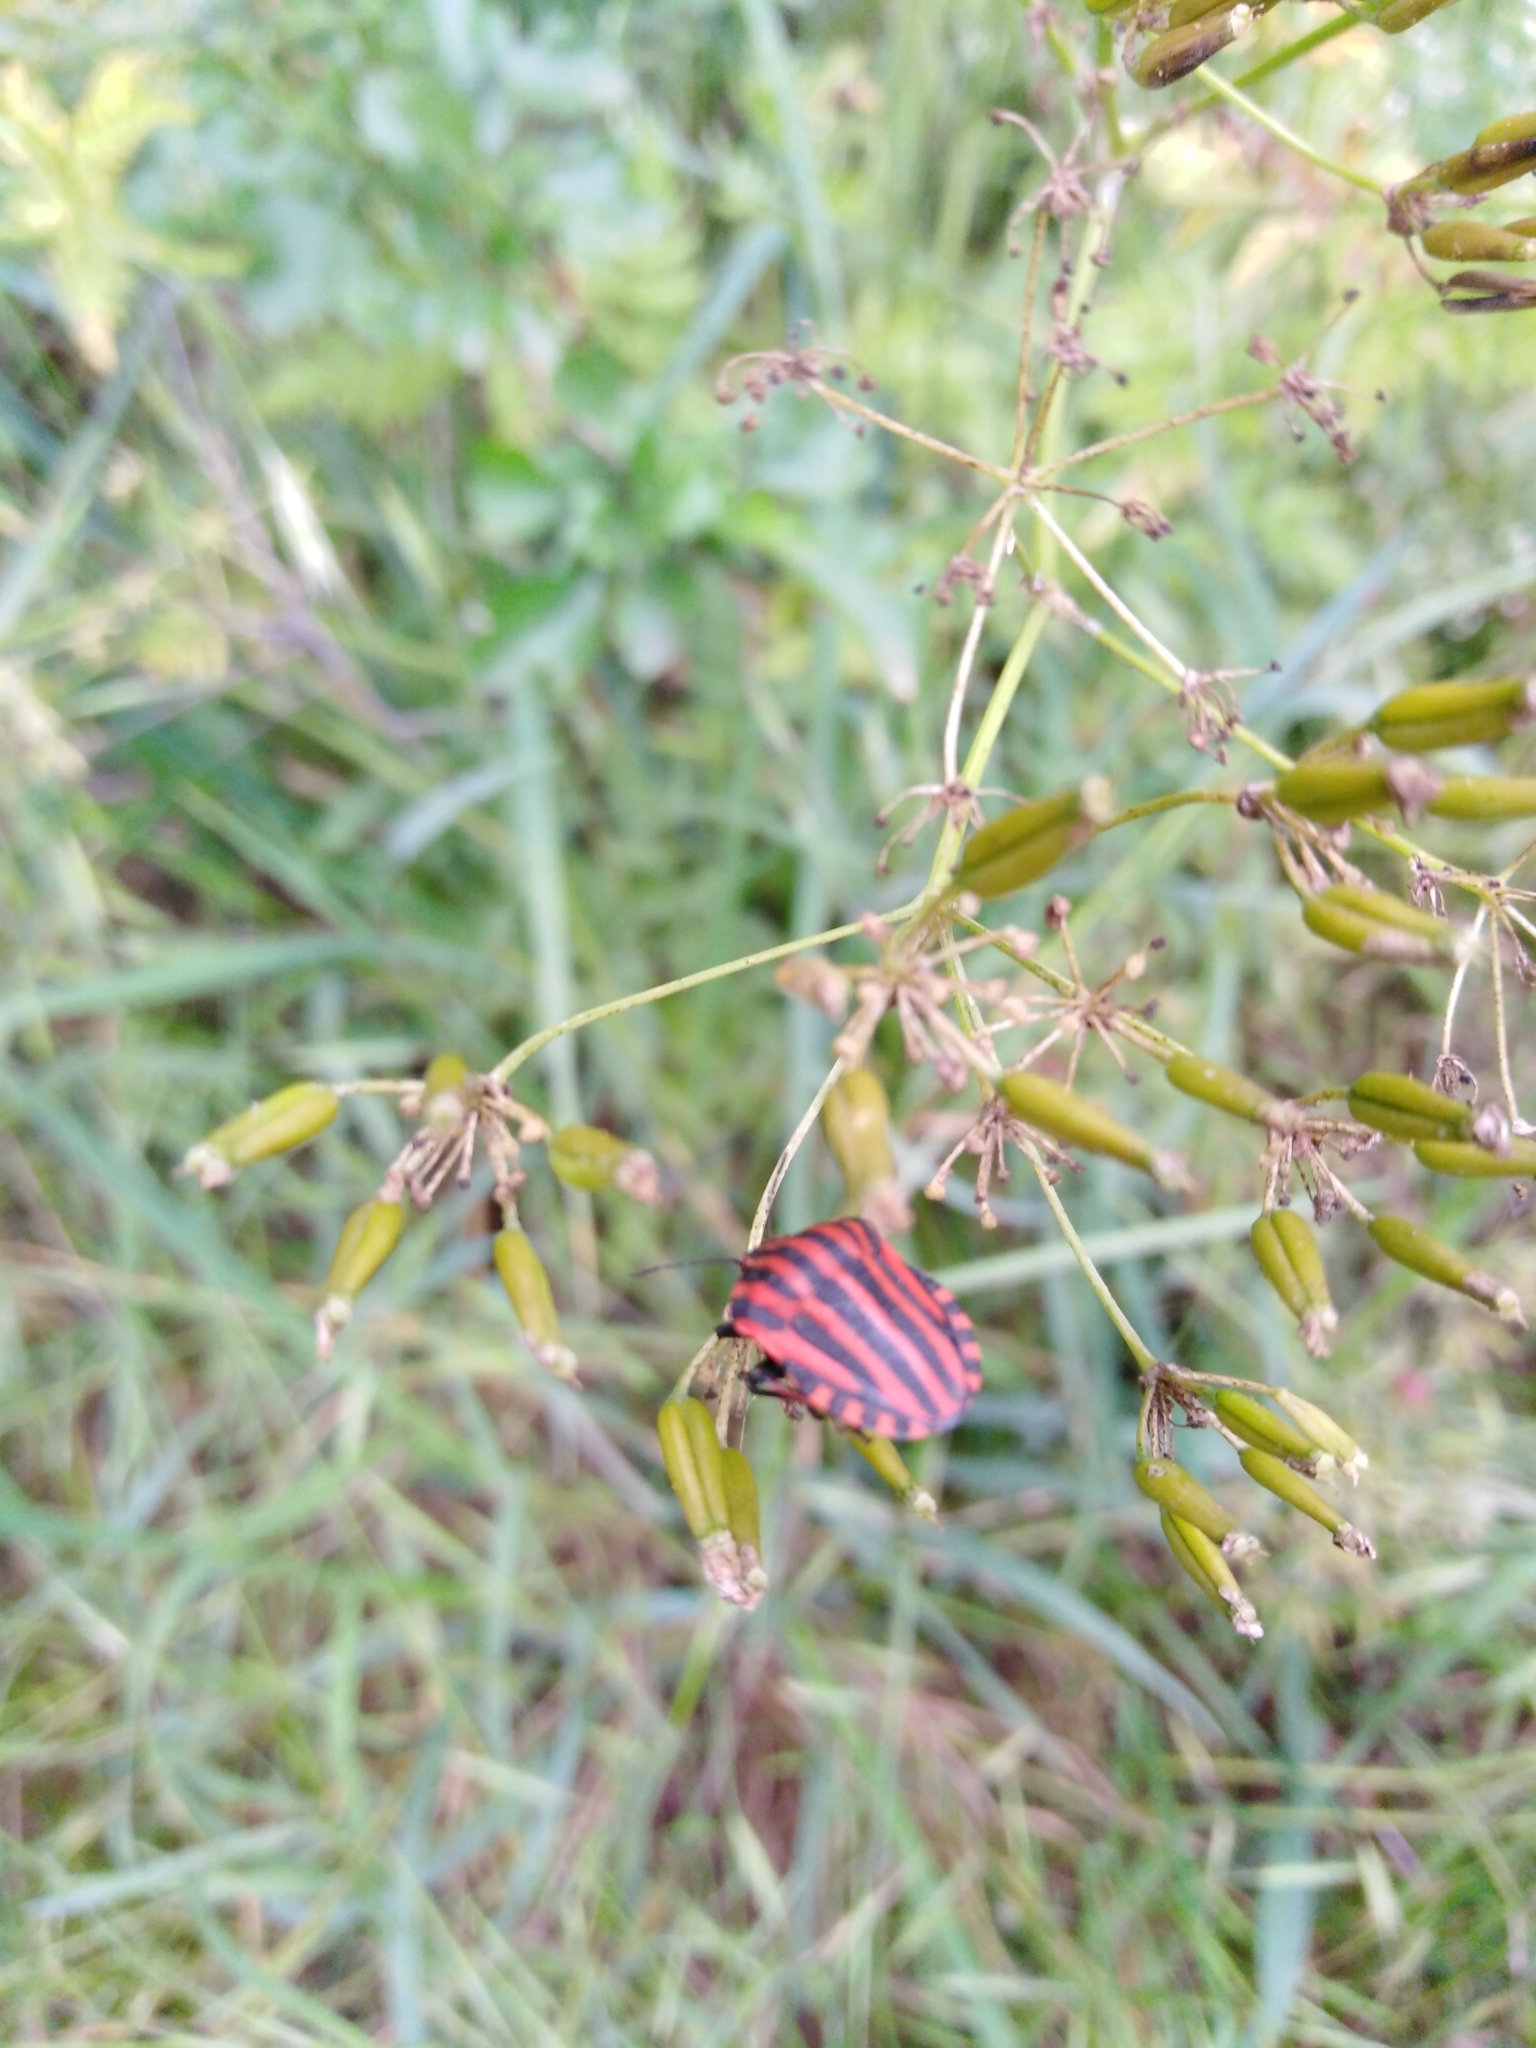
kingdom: Animalia
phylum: Arthropoda
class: Insecta
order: Hemiptera
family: Pentatomidae
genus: Graphosoma
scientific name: Graphosoma italicum
